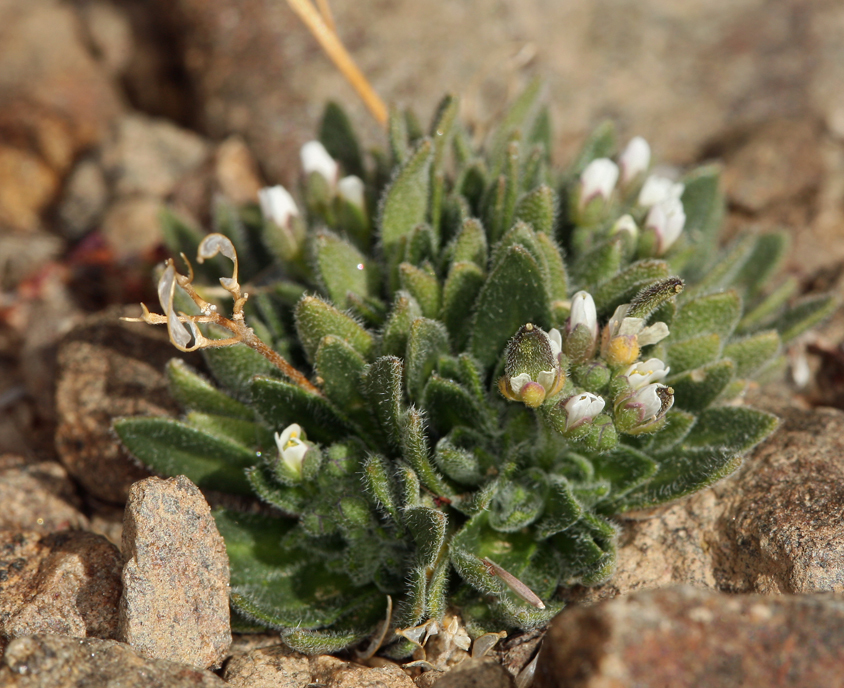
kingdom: Plantae
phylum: Tracheophyta
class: Magnoliopsida
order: Brassicales
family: Brassicaceae
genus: Draba
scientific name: Draba californica
